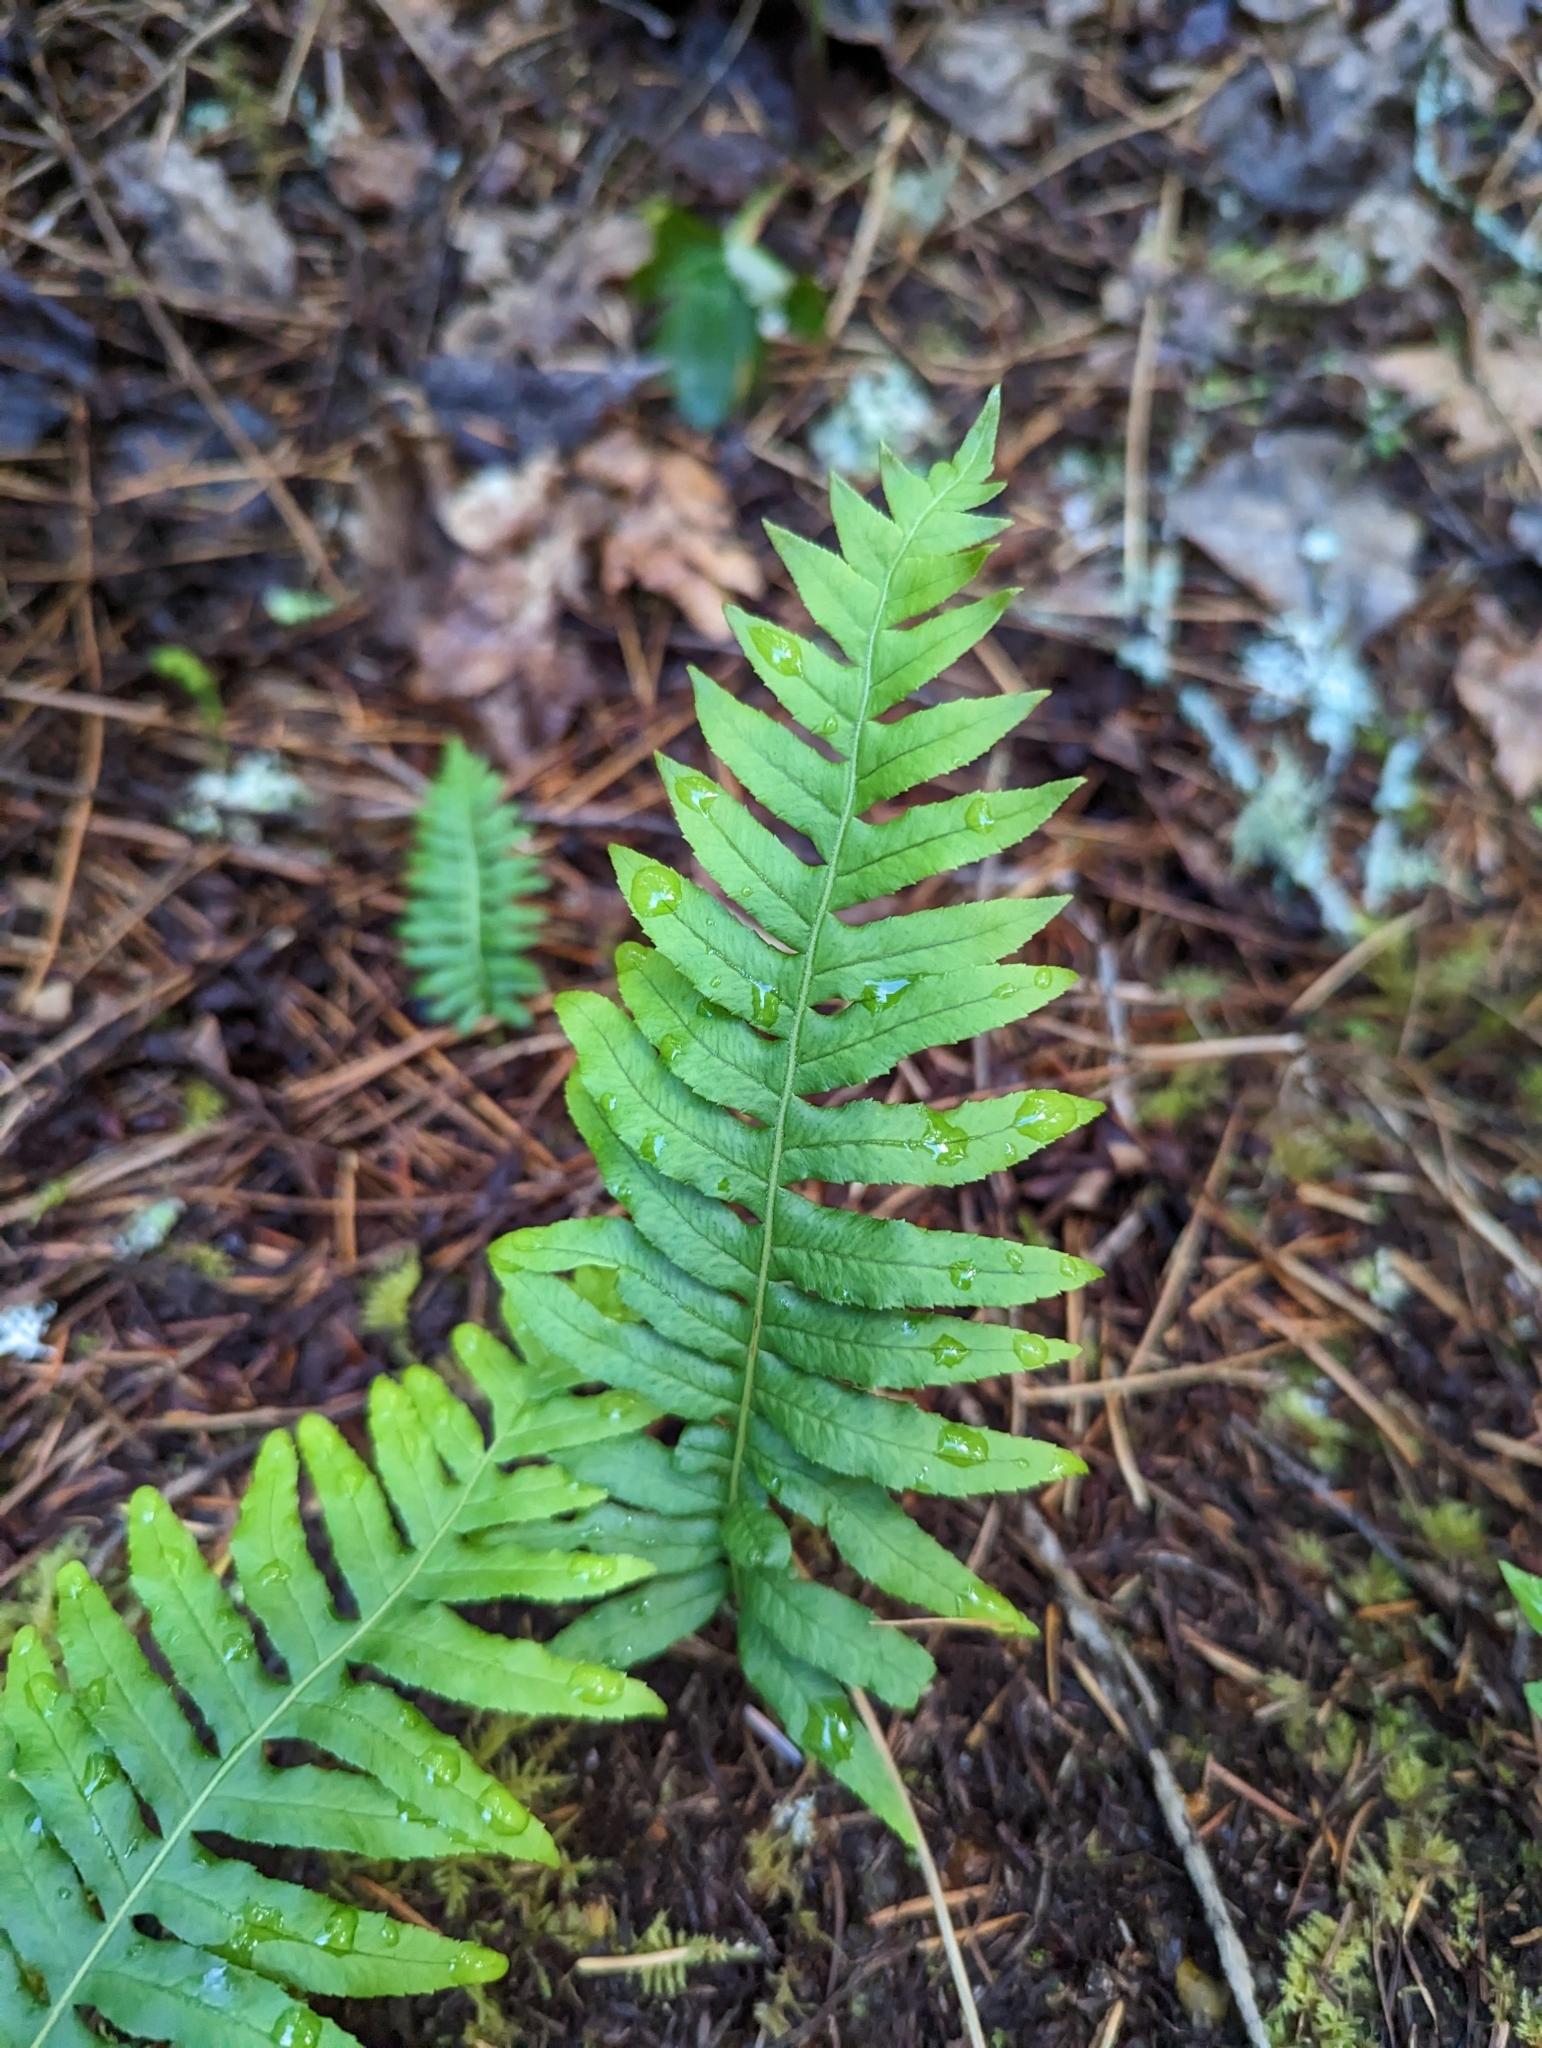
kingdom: Plantae
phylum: Tracheophyta
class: Polypodiopsida
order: Polypodiales
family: Polypodiaceae
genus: Polypodium
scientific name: Polypodium glycyrrhiza
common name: Licorice fern
